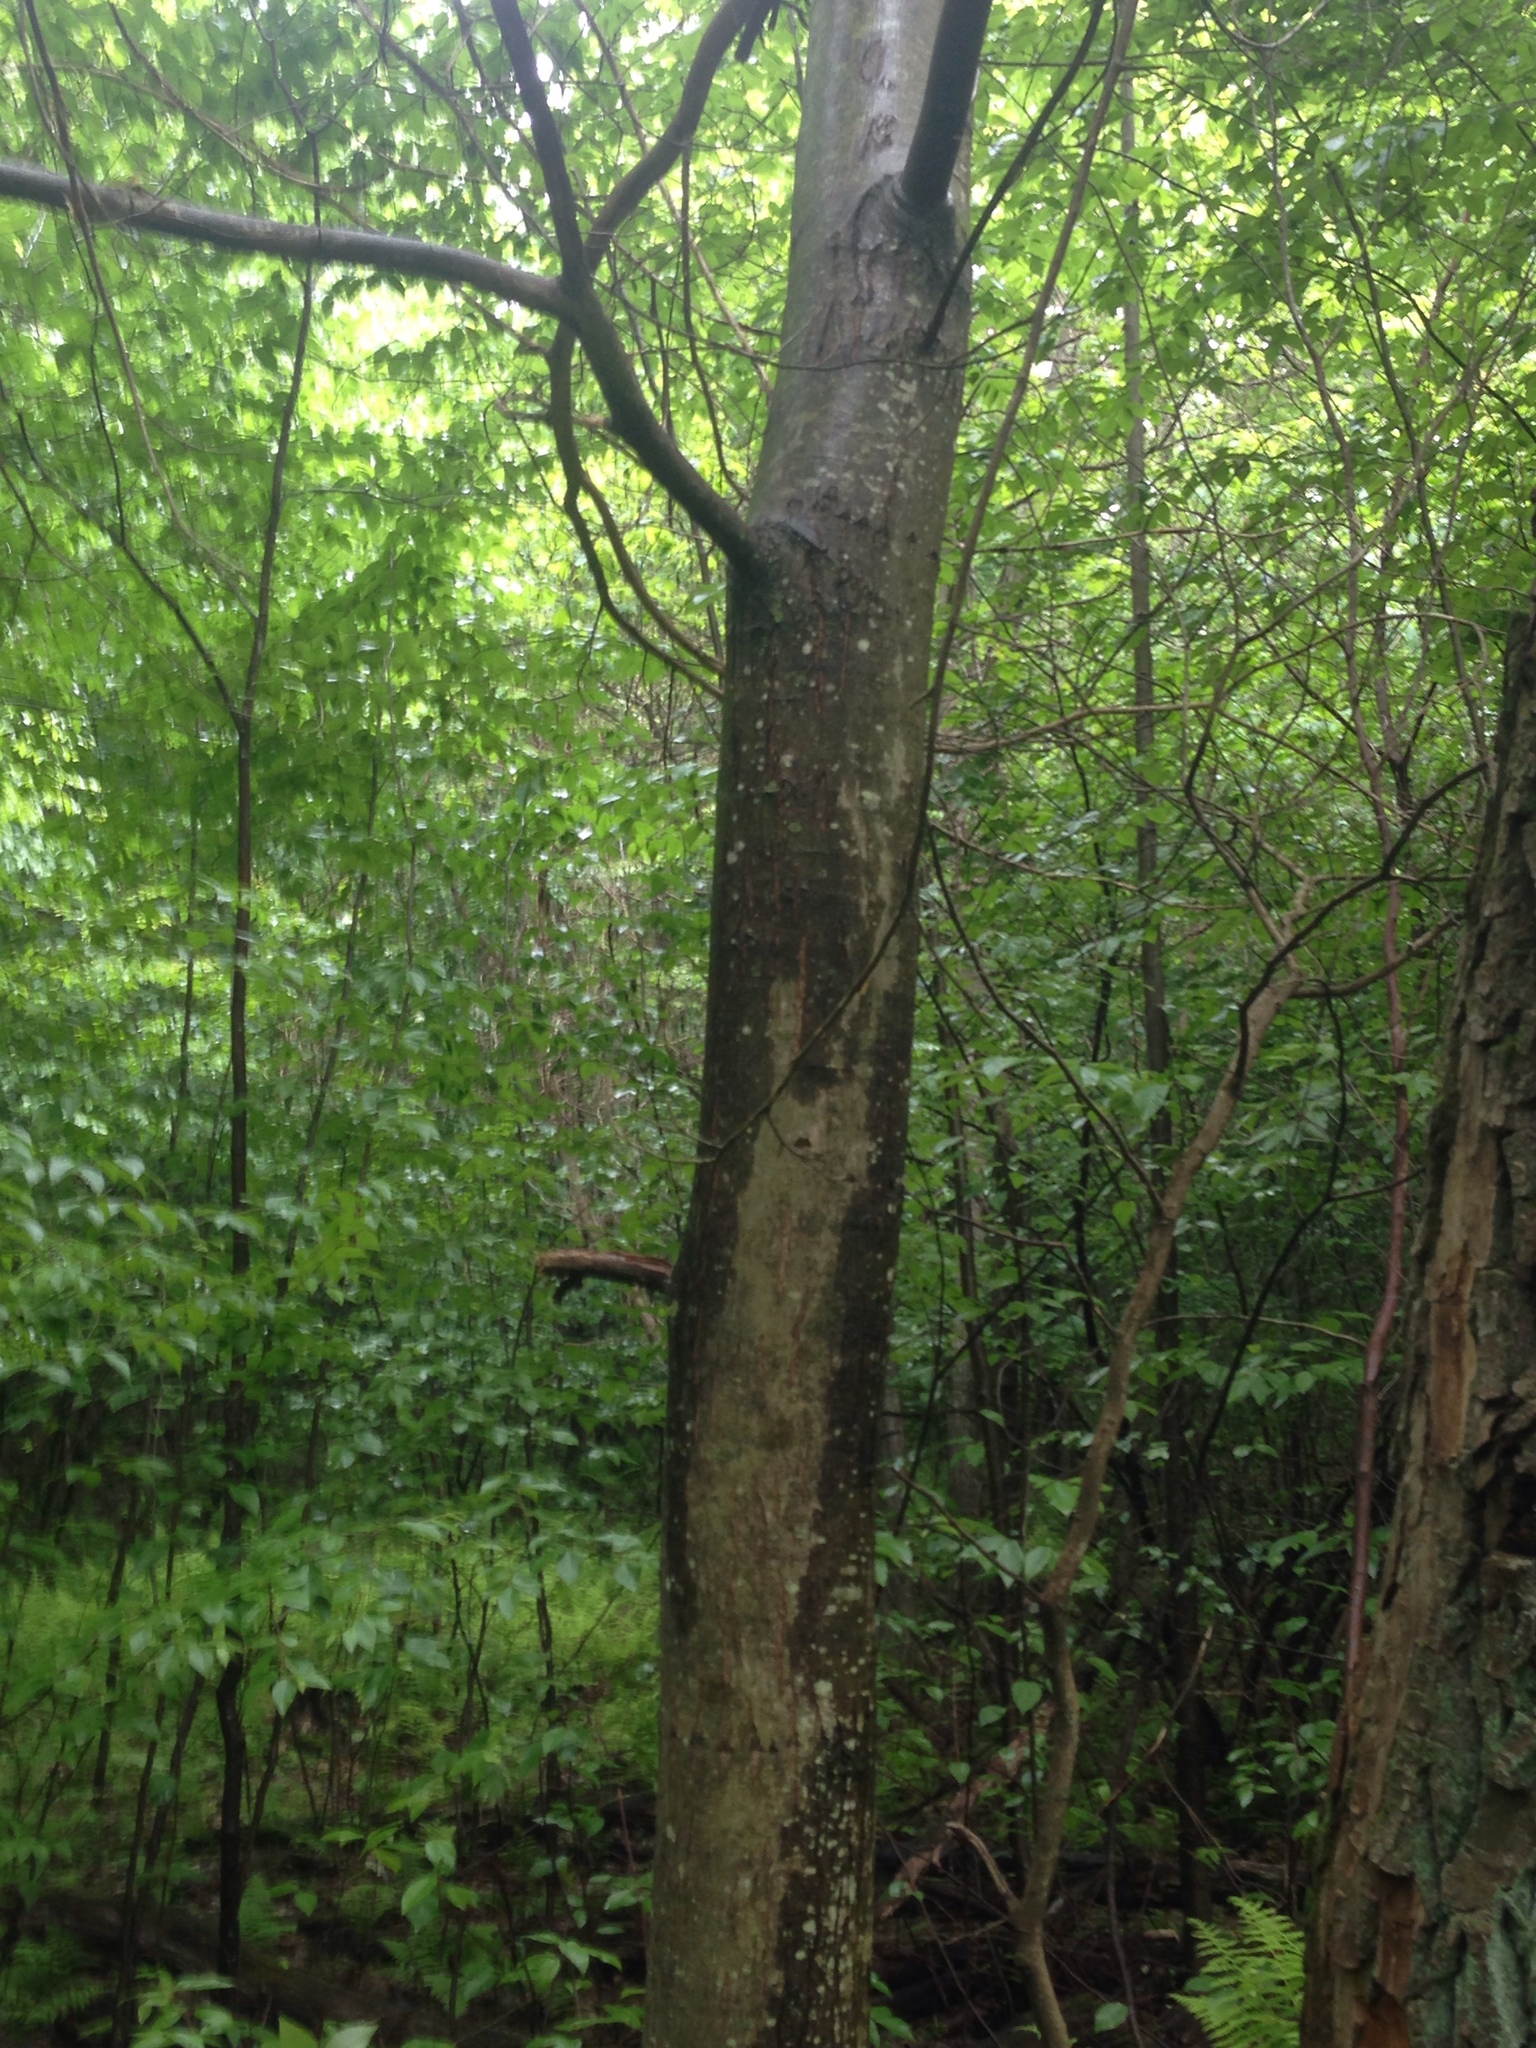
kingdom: Plantae
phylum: Tracheophyta
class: Magnoliopsida
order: Fagales
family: Fagaceae
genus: Castanea
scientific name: Castanea dentata
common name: American chestnut
